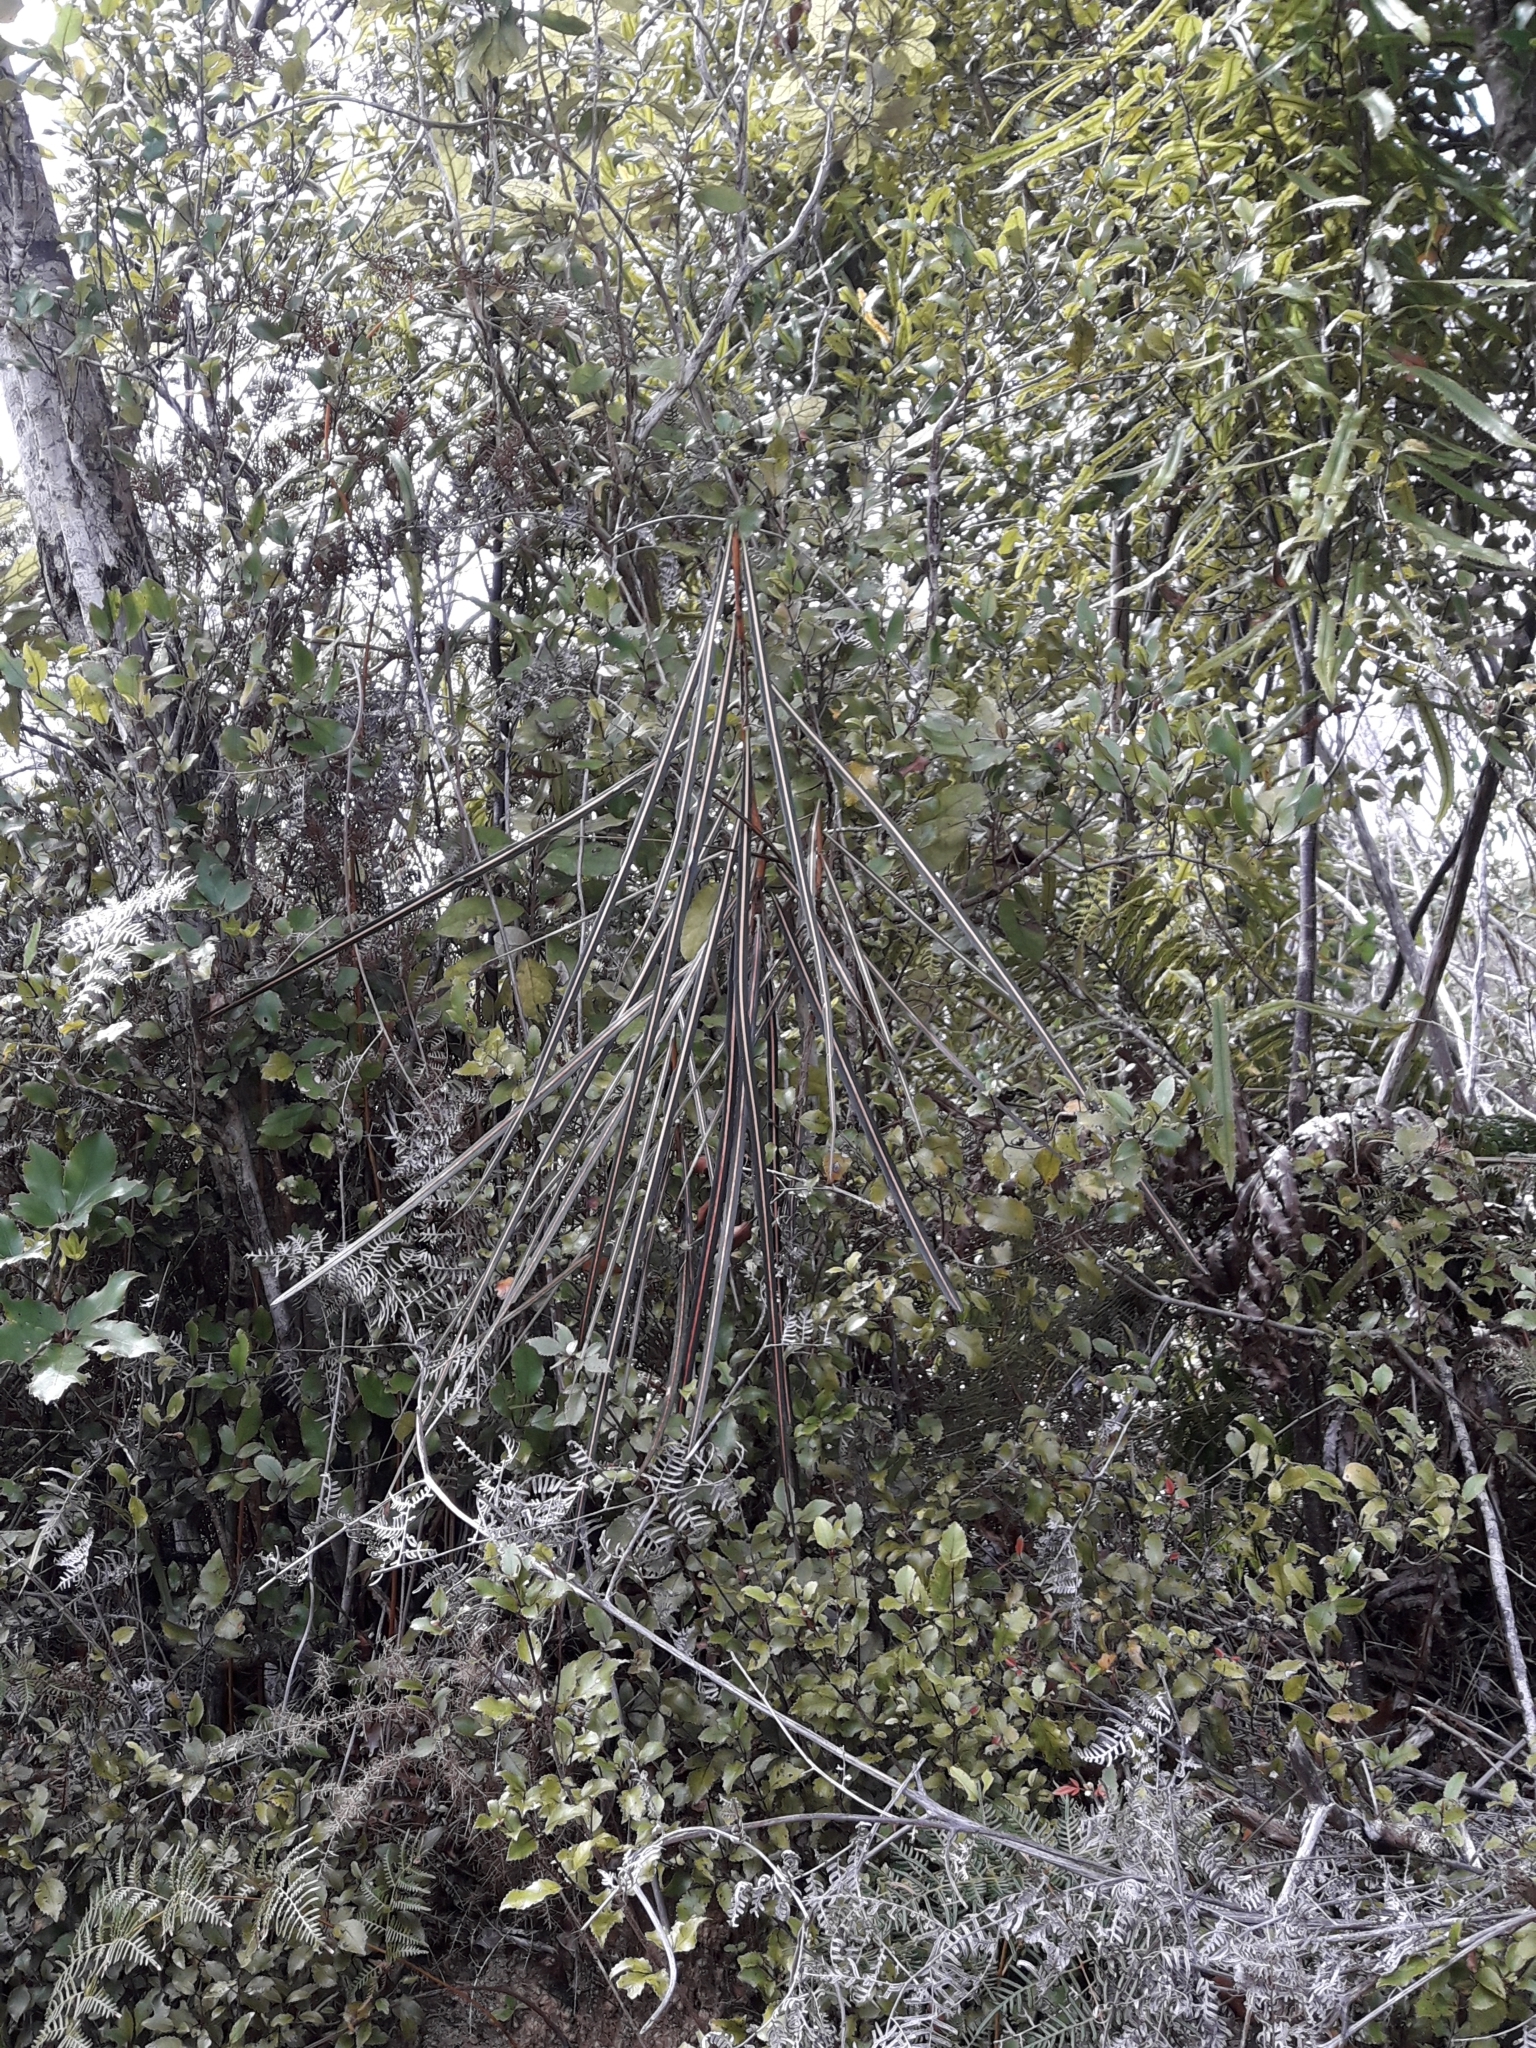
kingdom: Plantae
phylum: Tracheophyta
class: Magnoliopsida
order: Apiales
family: Araliaceae
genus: Pseudopanax
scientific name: Pseudopanax crassifolius
